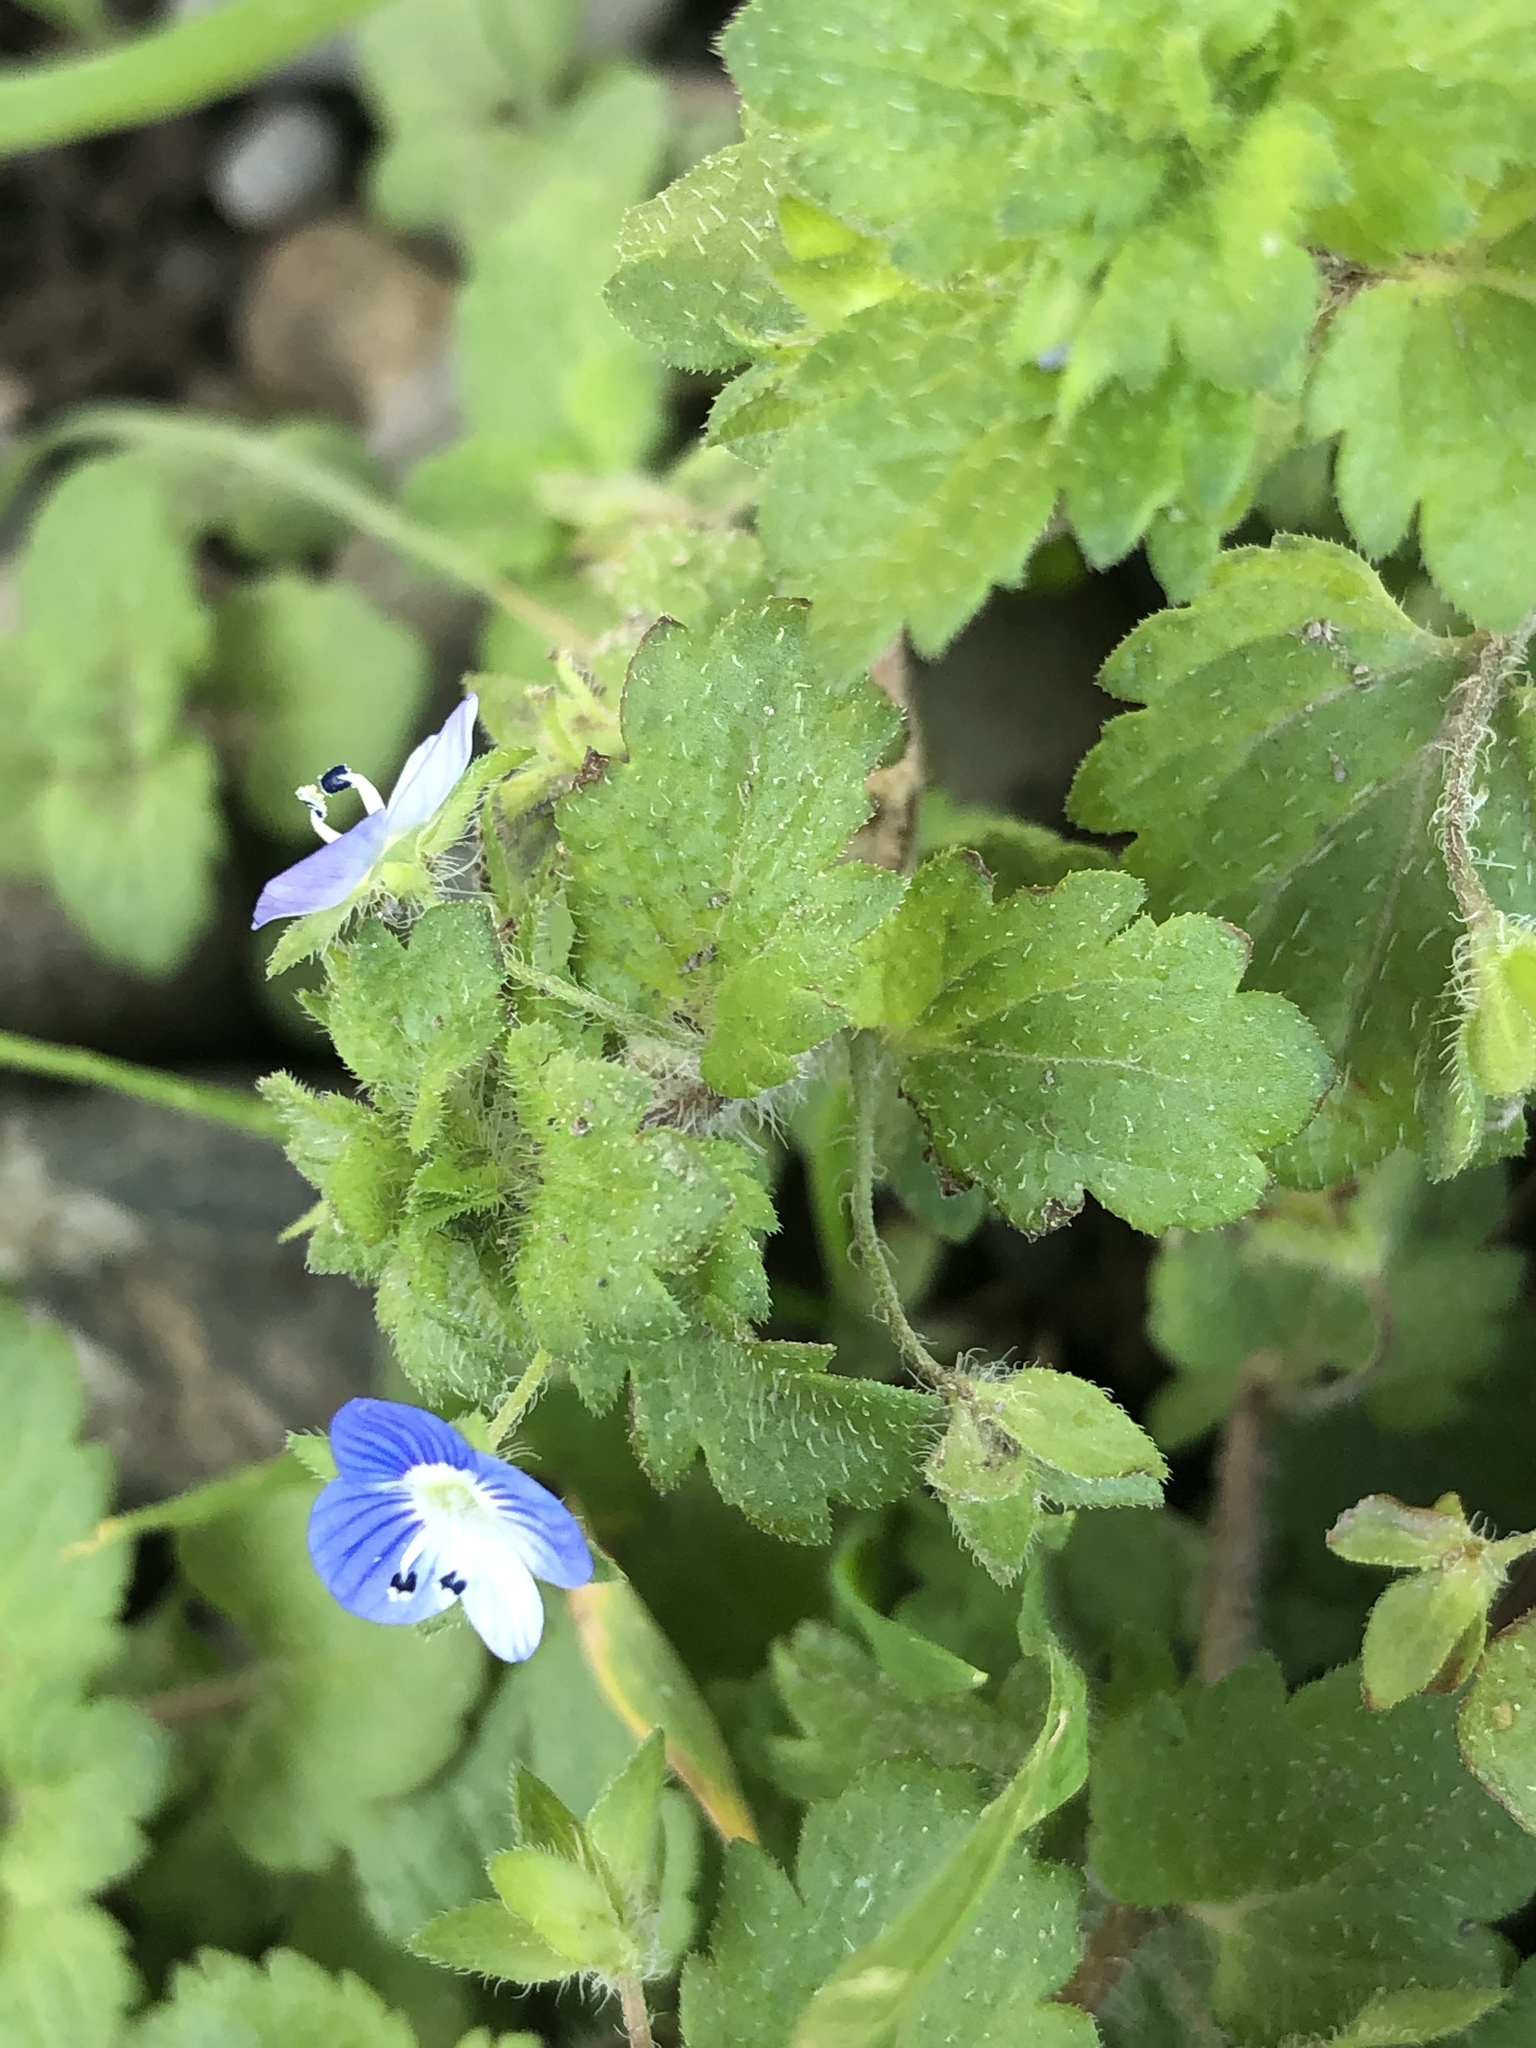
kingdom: Plantae
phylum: Tracheophyta
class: Magnoliopsida
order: Lamiales
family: Plantaginaceae
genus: Veronica
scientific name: Veronica persica
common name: Common field-speedwell
